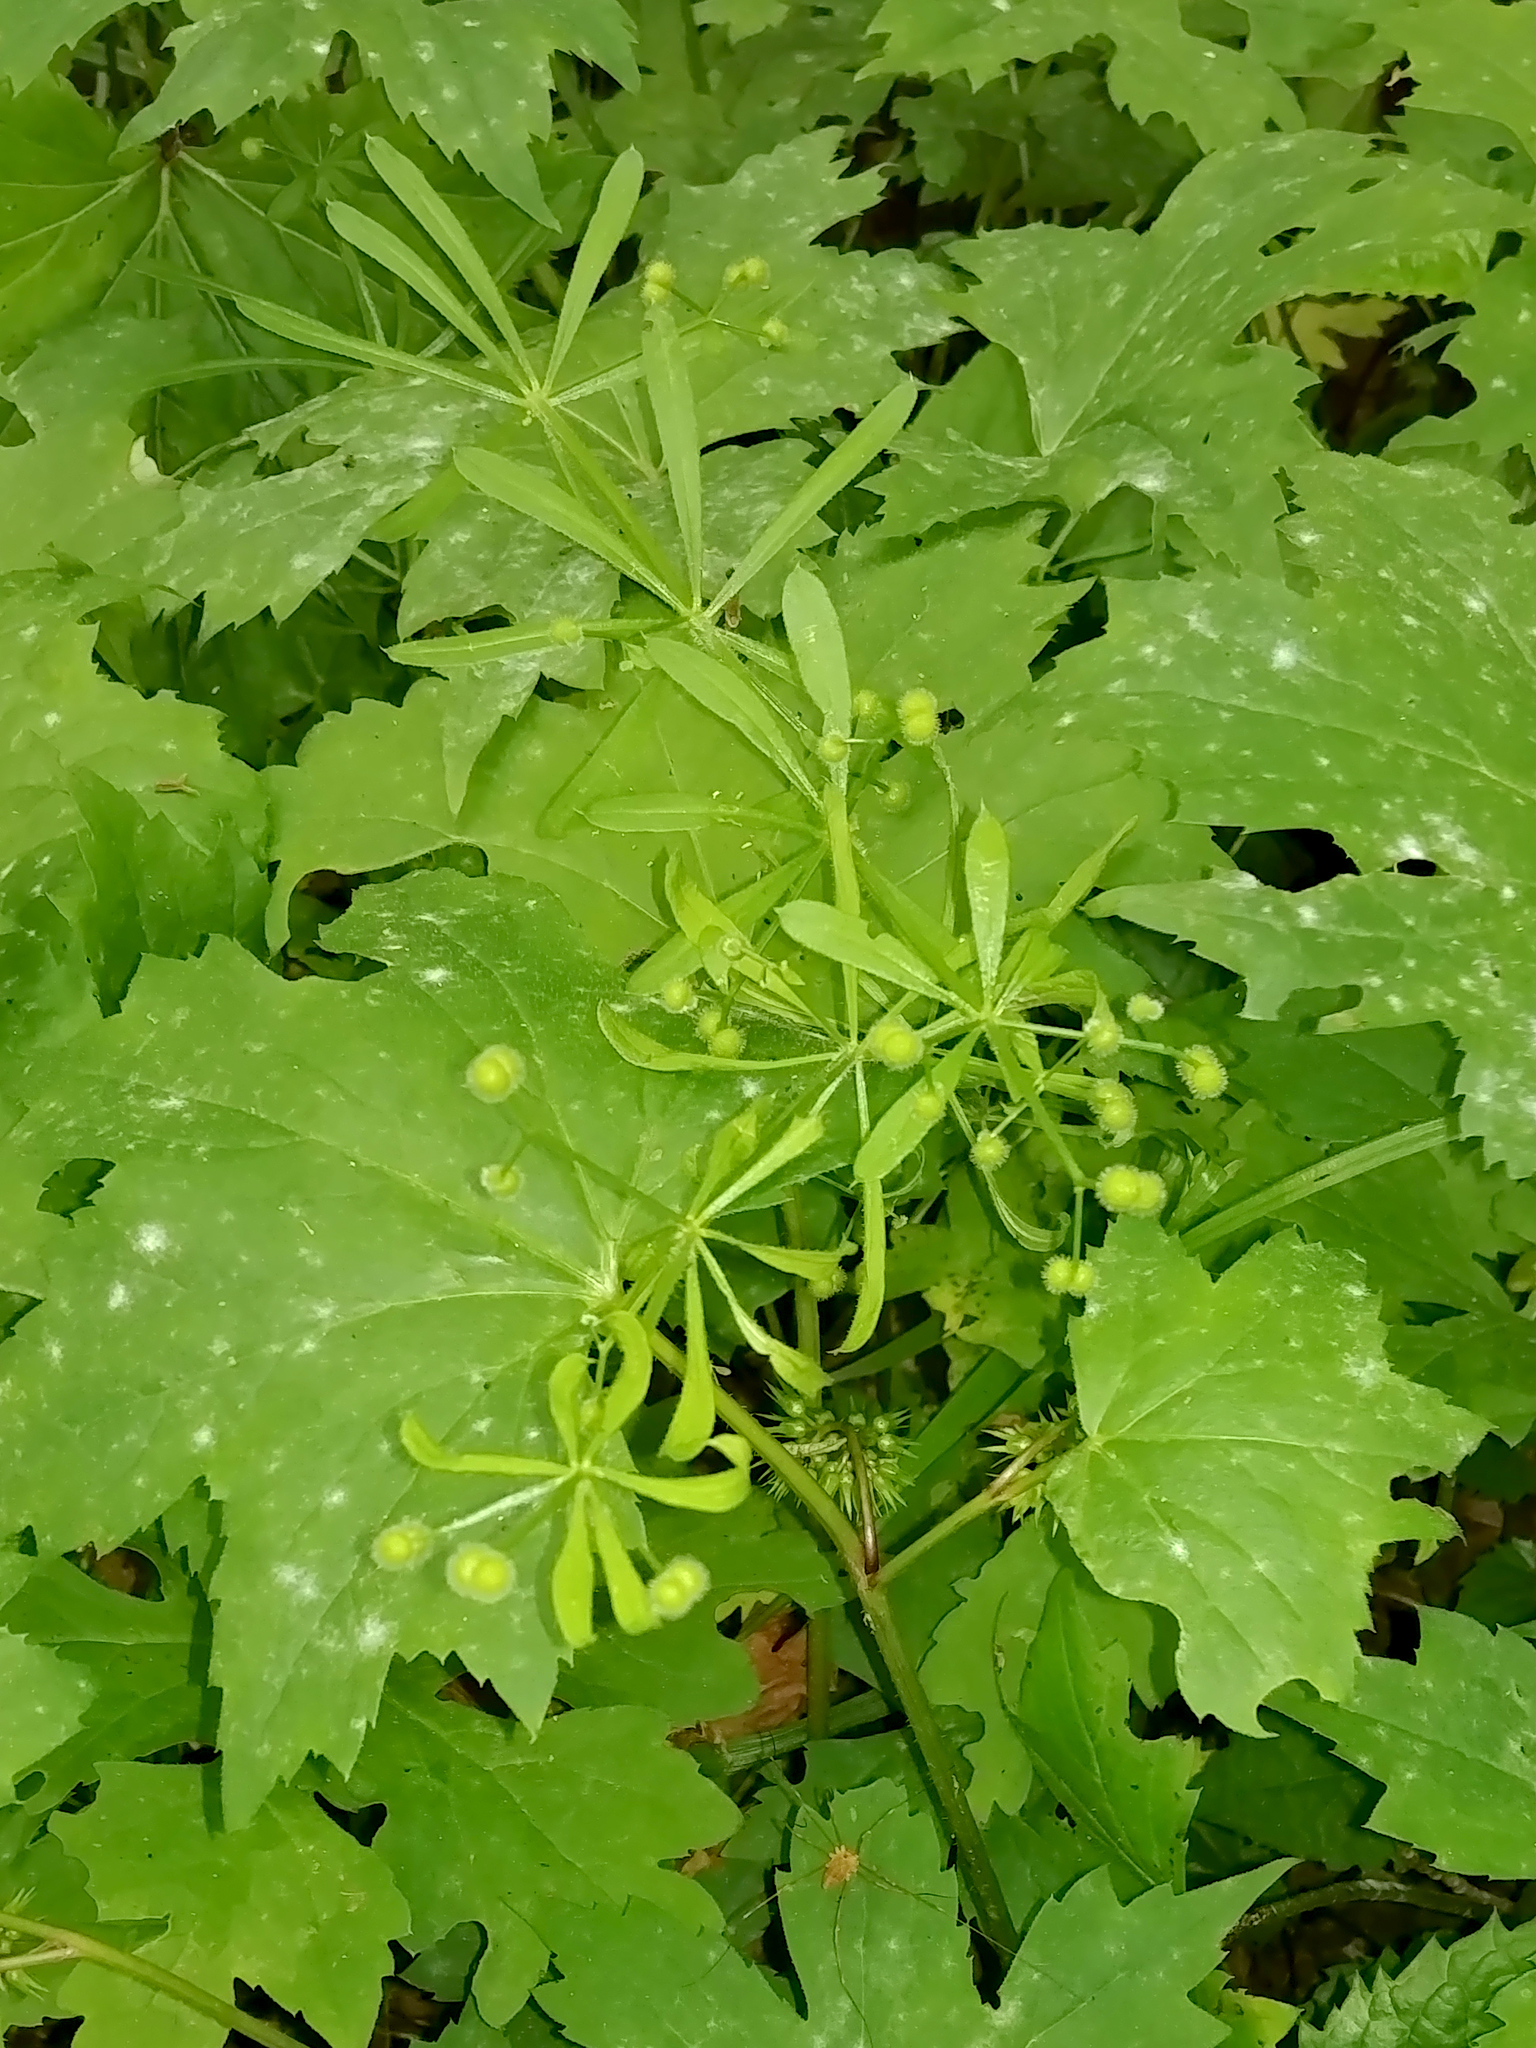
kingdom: Plantae
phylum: Tracheophyta
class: Magnoliopsida
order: Gentianales
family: Rubiaceae
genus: Galium
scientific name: Galium aparine
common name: Cleavers
